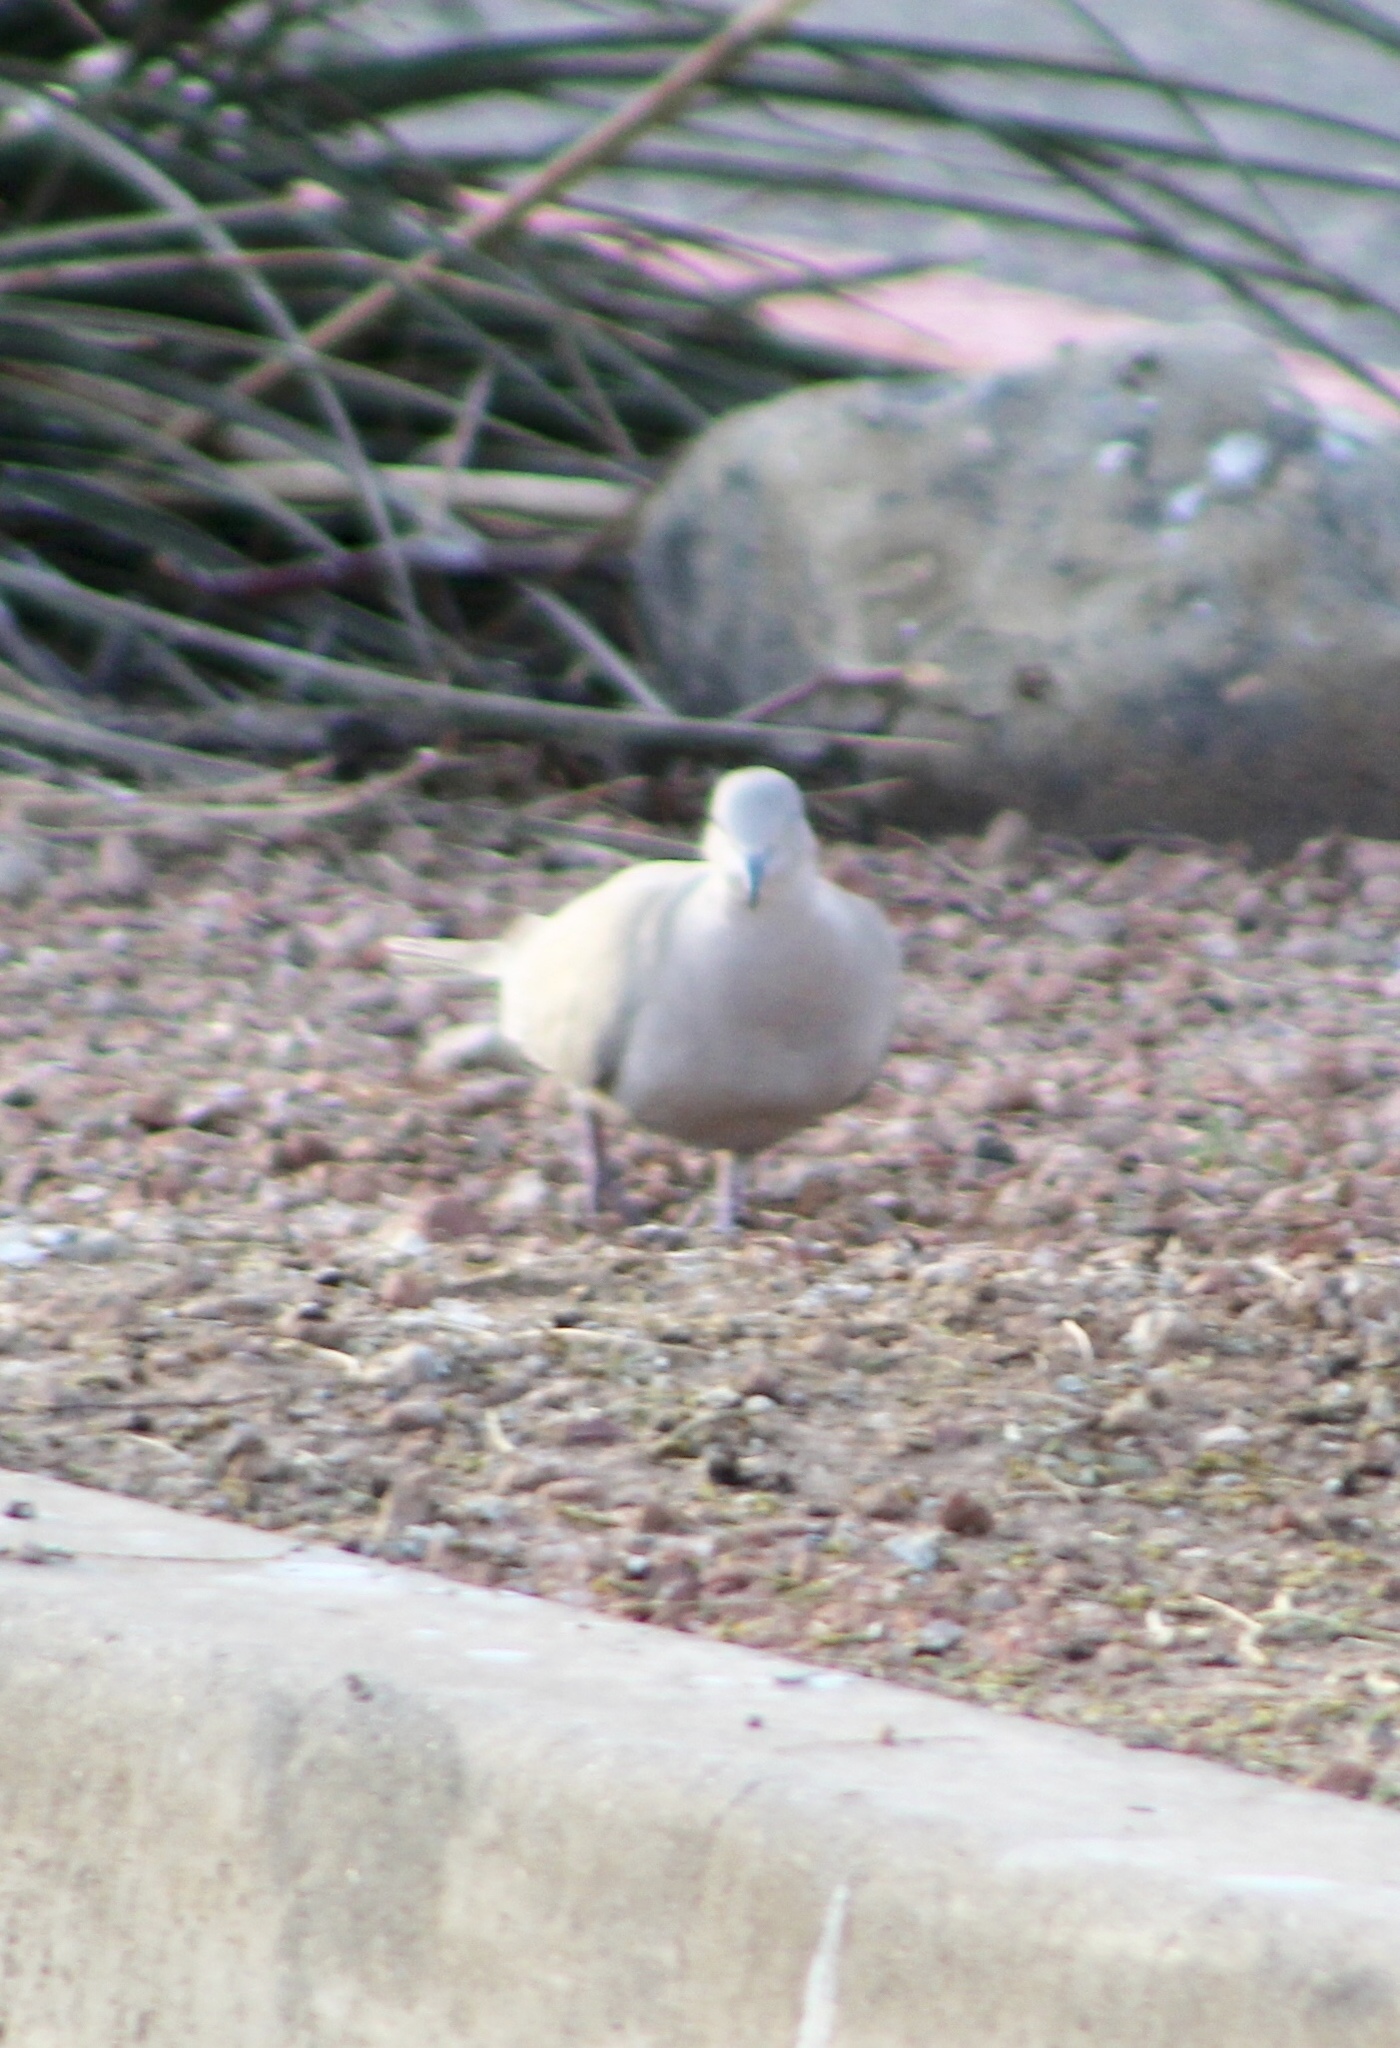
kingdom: Animalia
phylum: Chordata
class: Aves
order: Columbiformes
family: Columbidae
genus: Streptopelia
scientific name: Streptopelia decaocto
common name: Eurasian collared dove
